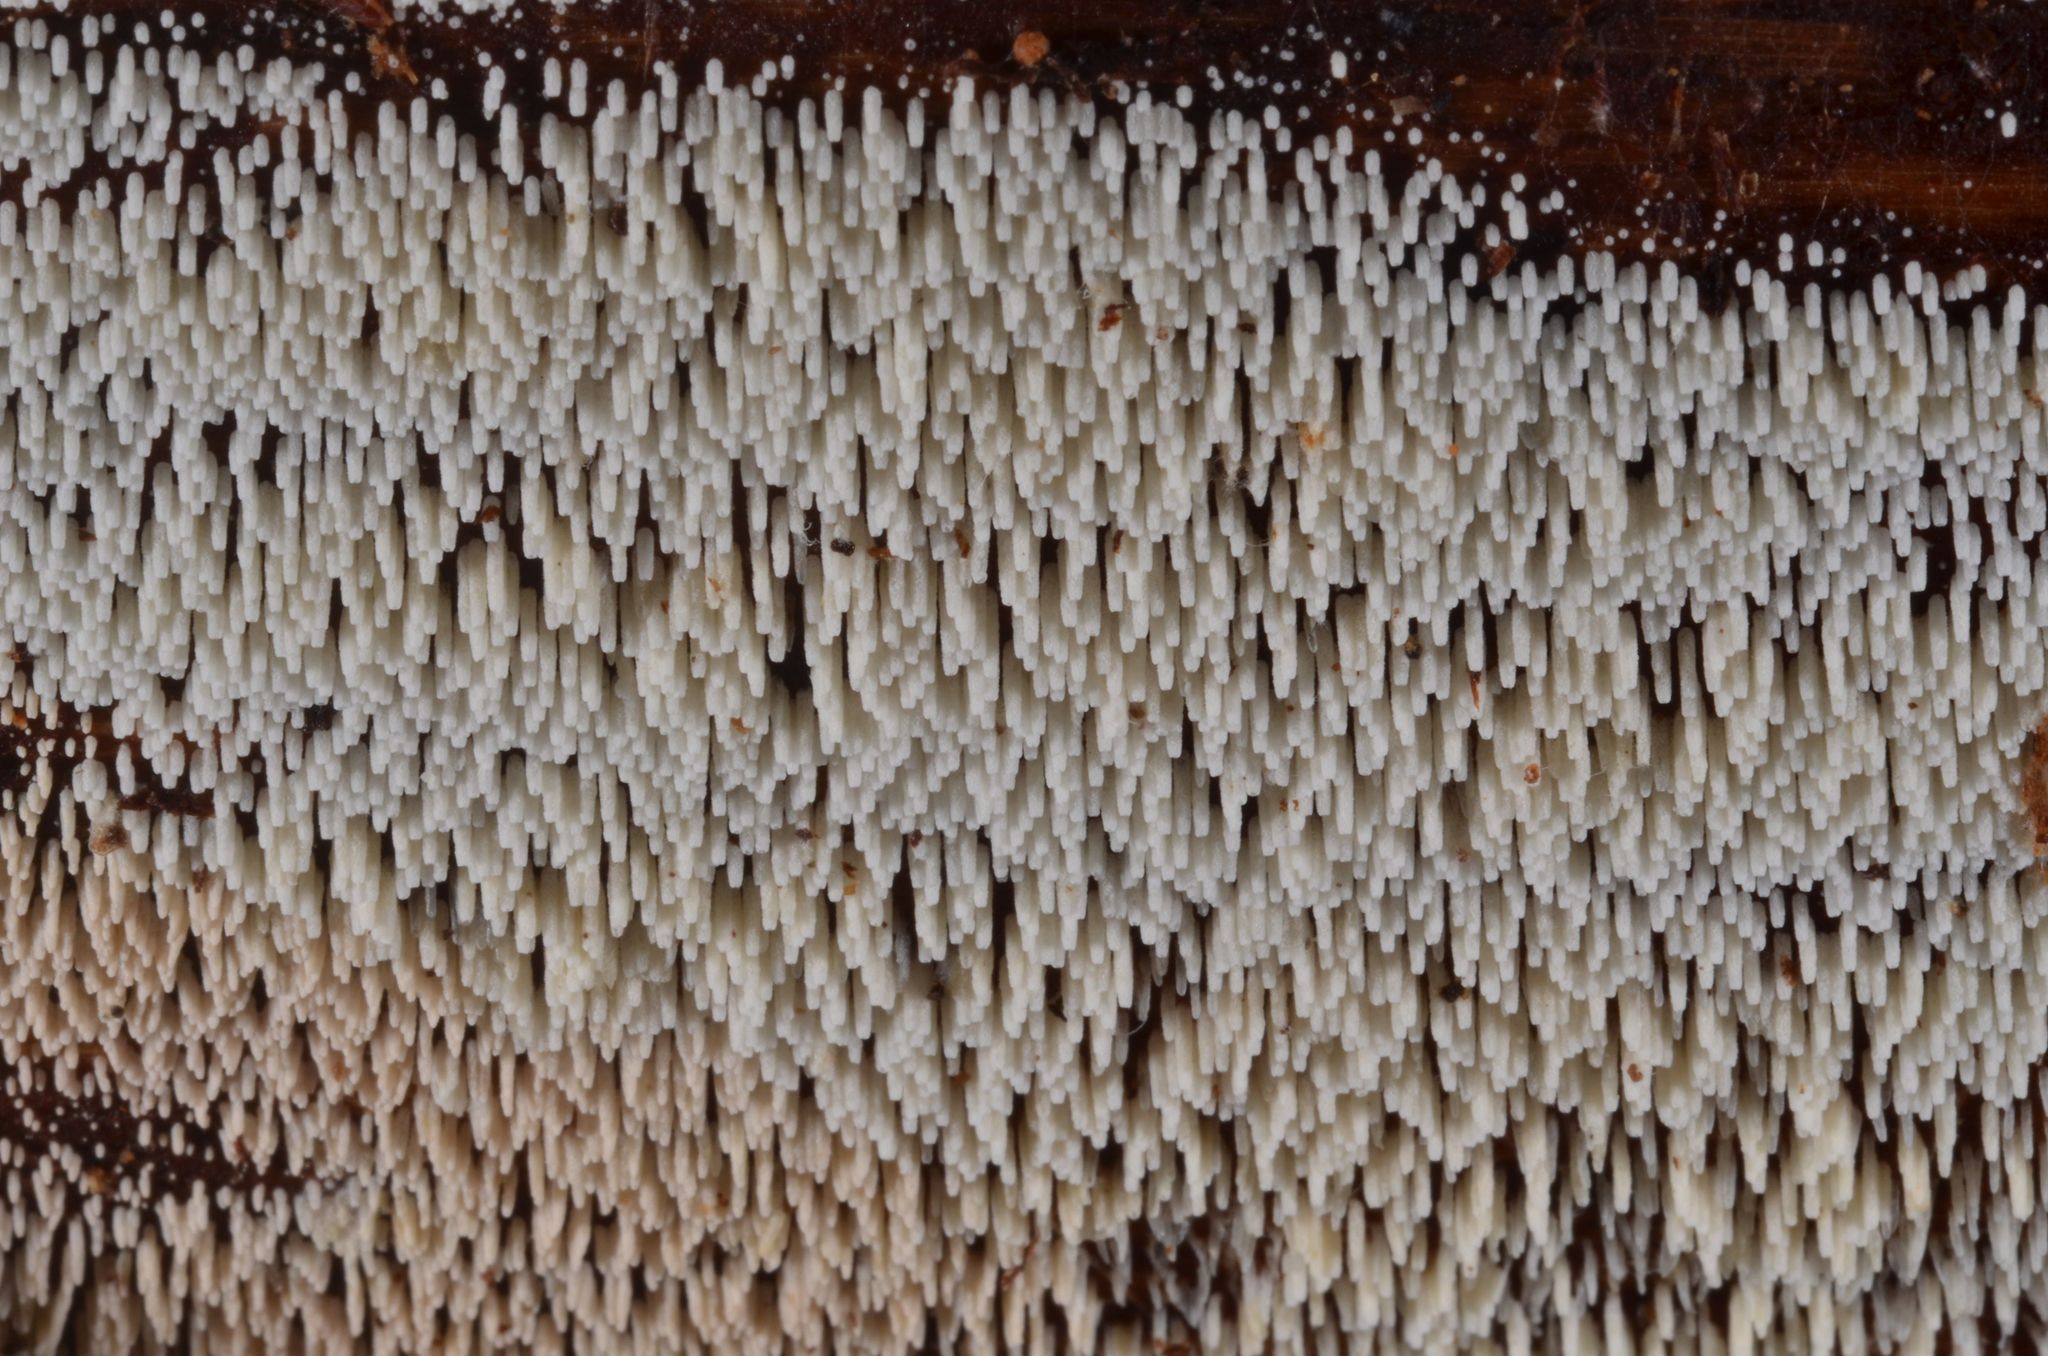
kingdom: Fungi
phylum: Basidiomycota
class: Agaricomycetes
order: Agaricales
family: Marasmiaceae
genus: Henningsomyces
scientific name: Henningsomyces candidus
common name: White tubelet
